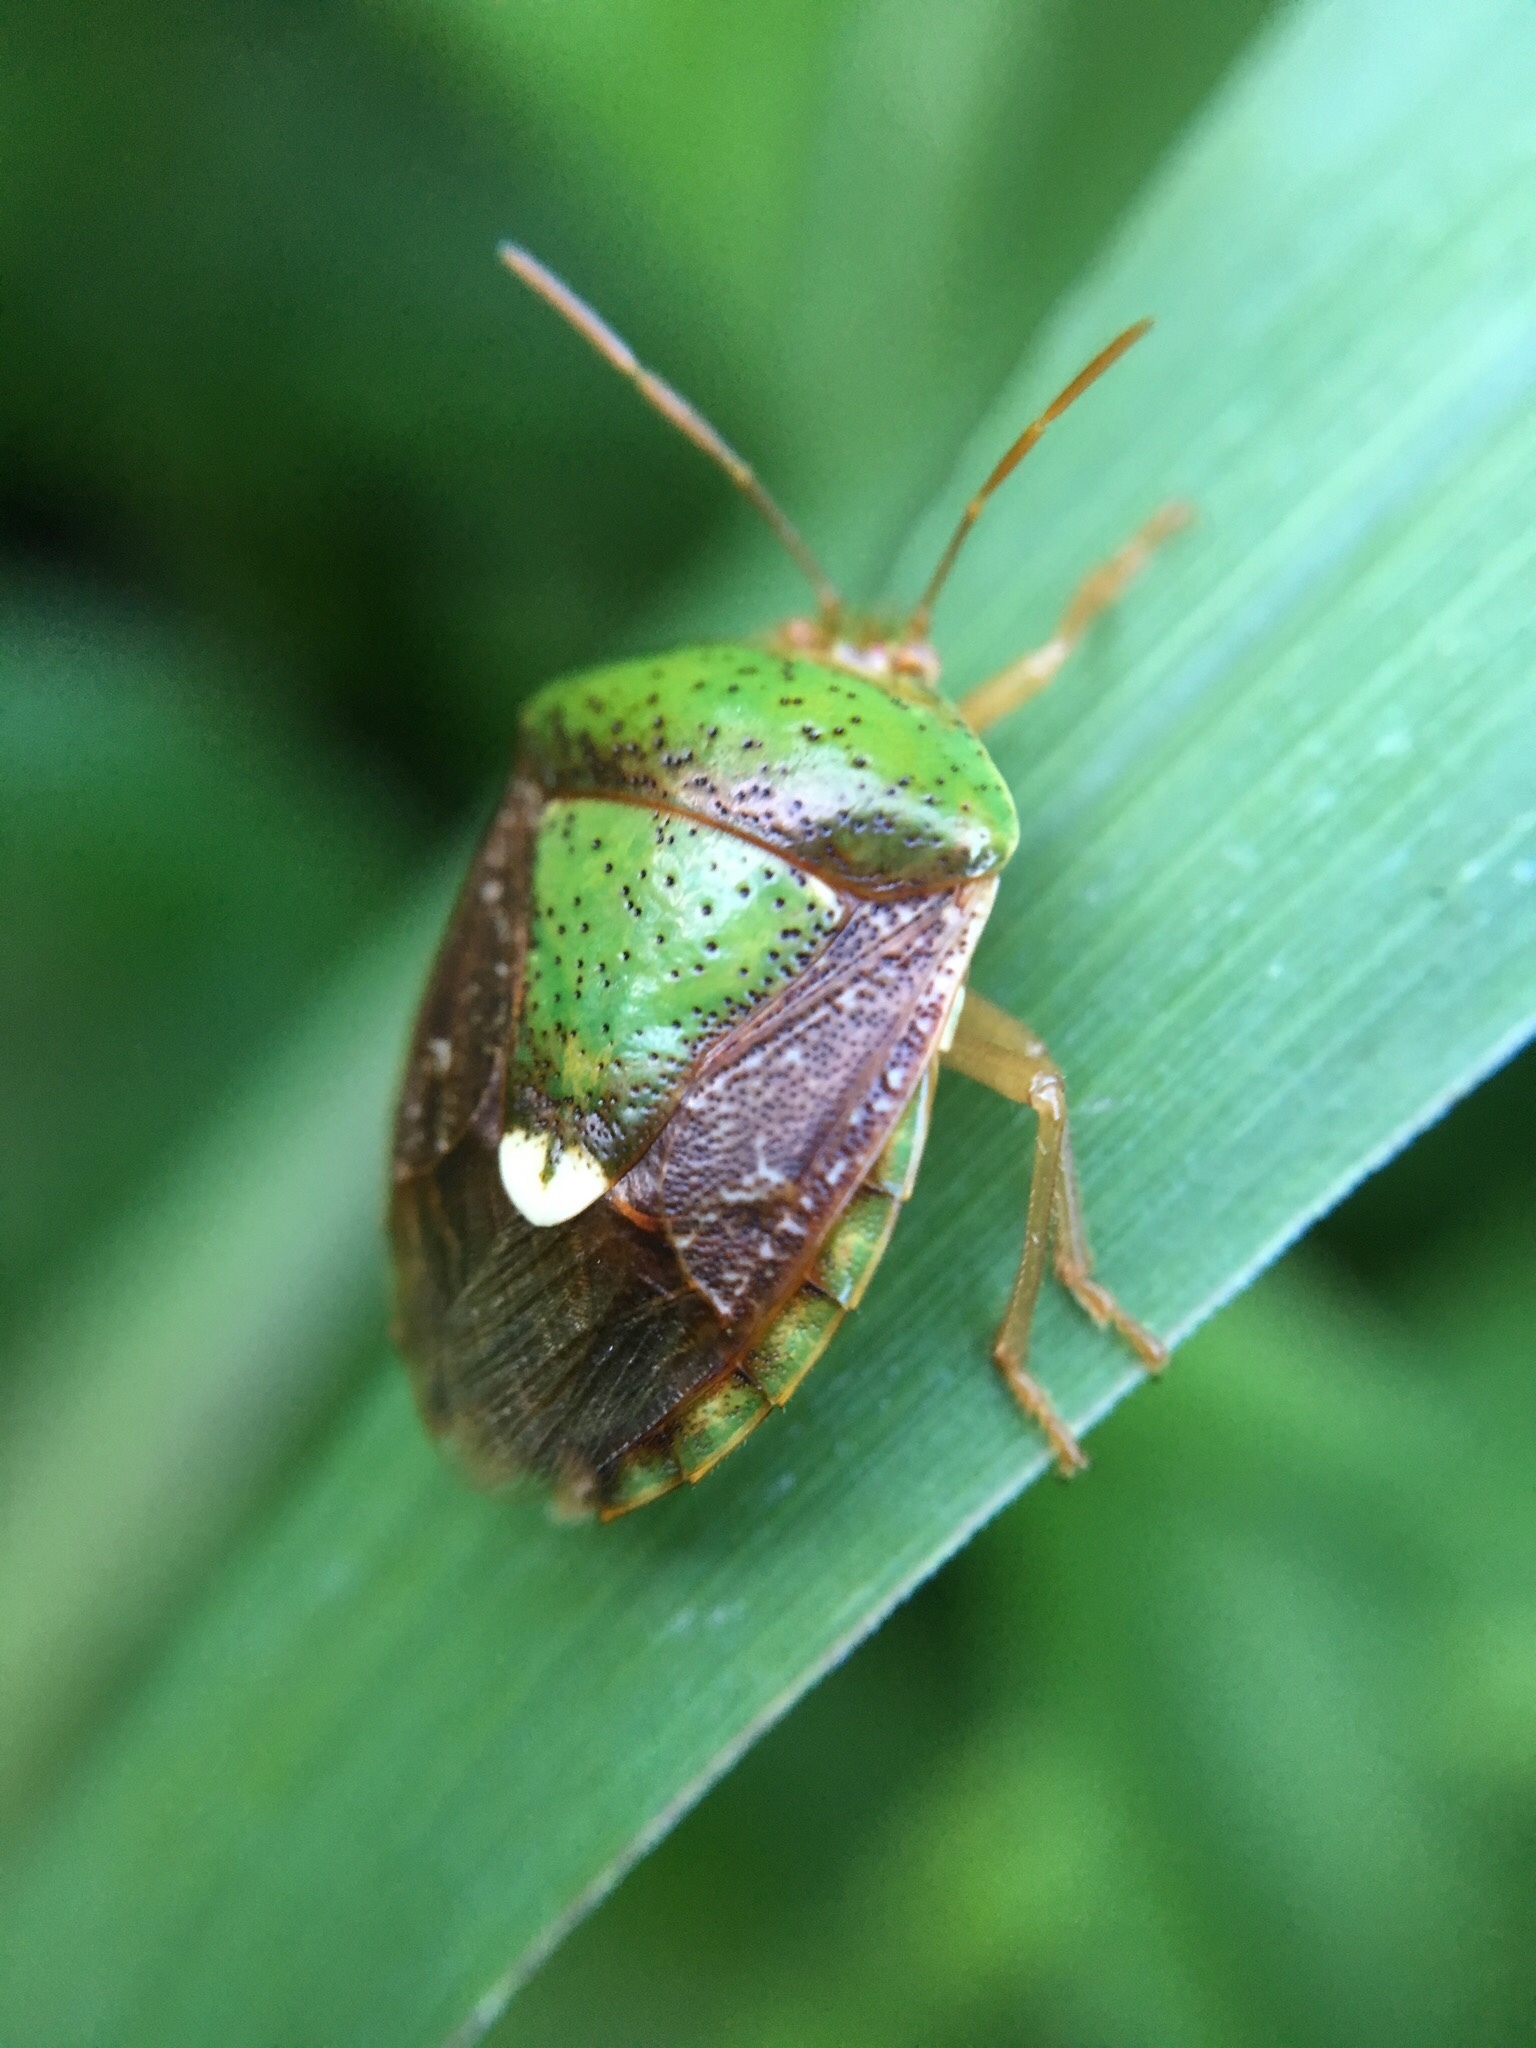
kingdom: Animalia
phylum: Arthropoda
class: Insecta
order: Hemiptera
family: Pentatomidae
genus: Edessa
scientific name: Edessa bifida
